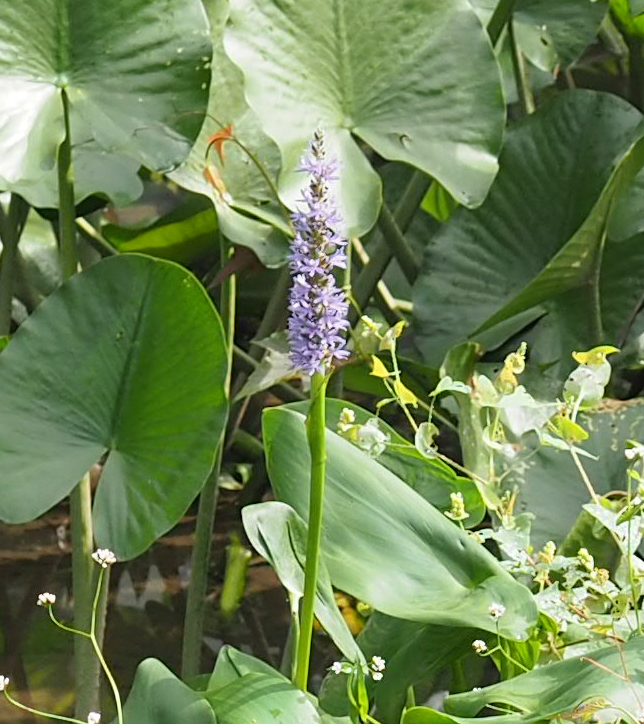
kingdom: Plantae
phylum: Tracheophyta
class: Liliopsida
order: Commelinales
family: Pontederiaceae
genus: Pontederia
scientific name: Pontederia cordata
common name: Pickerelweed
